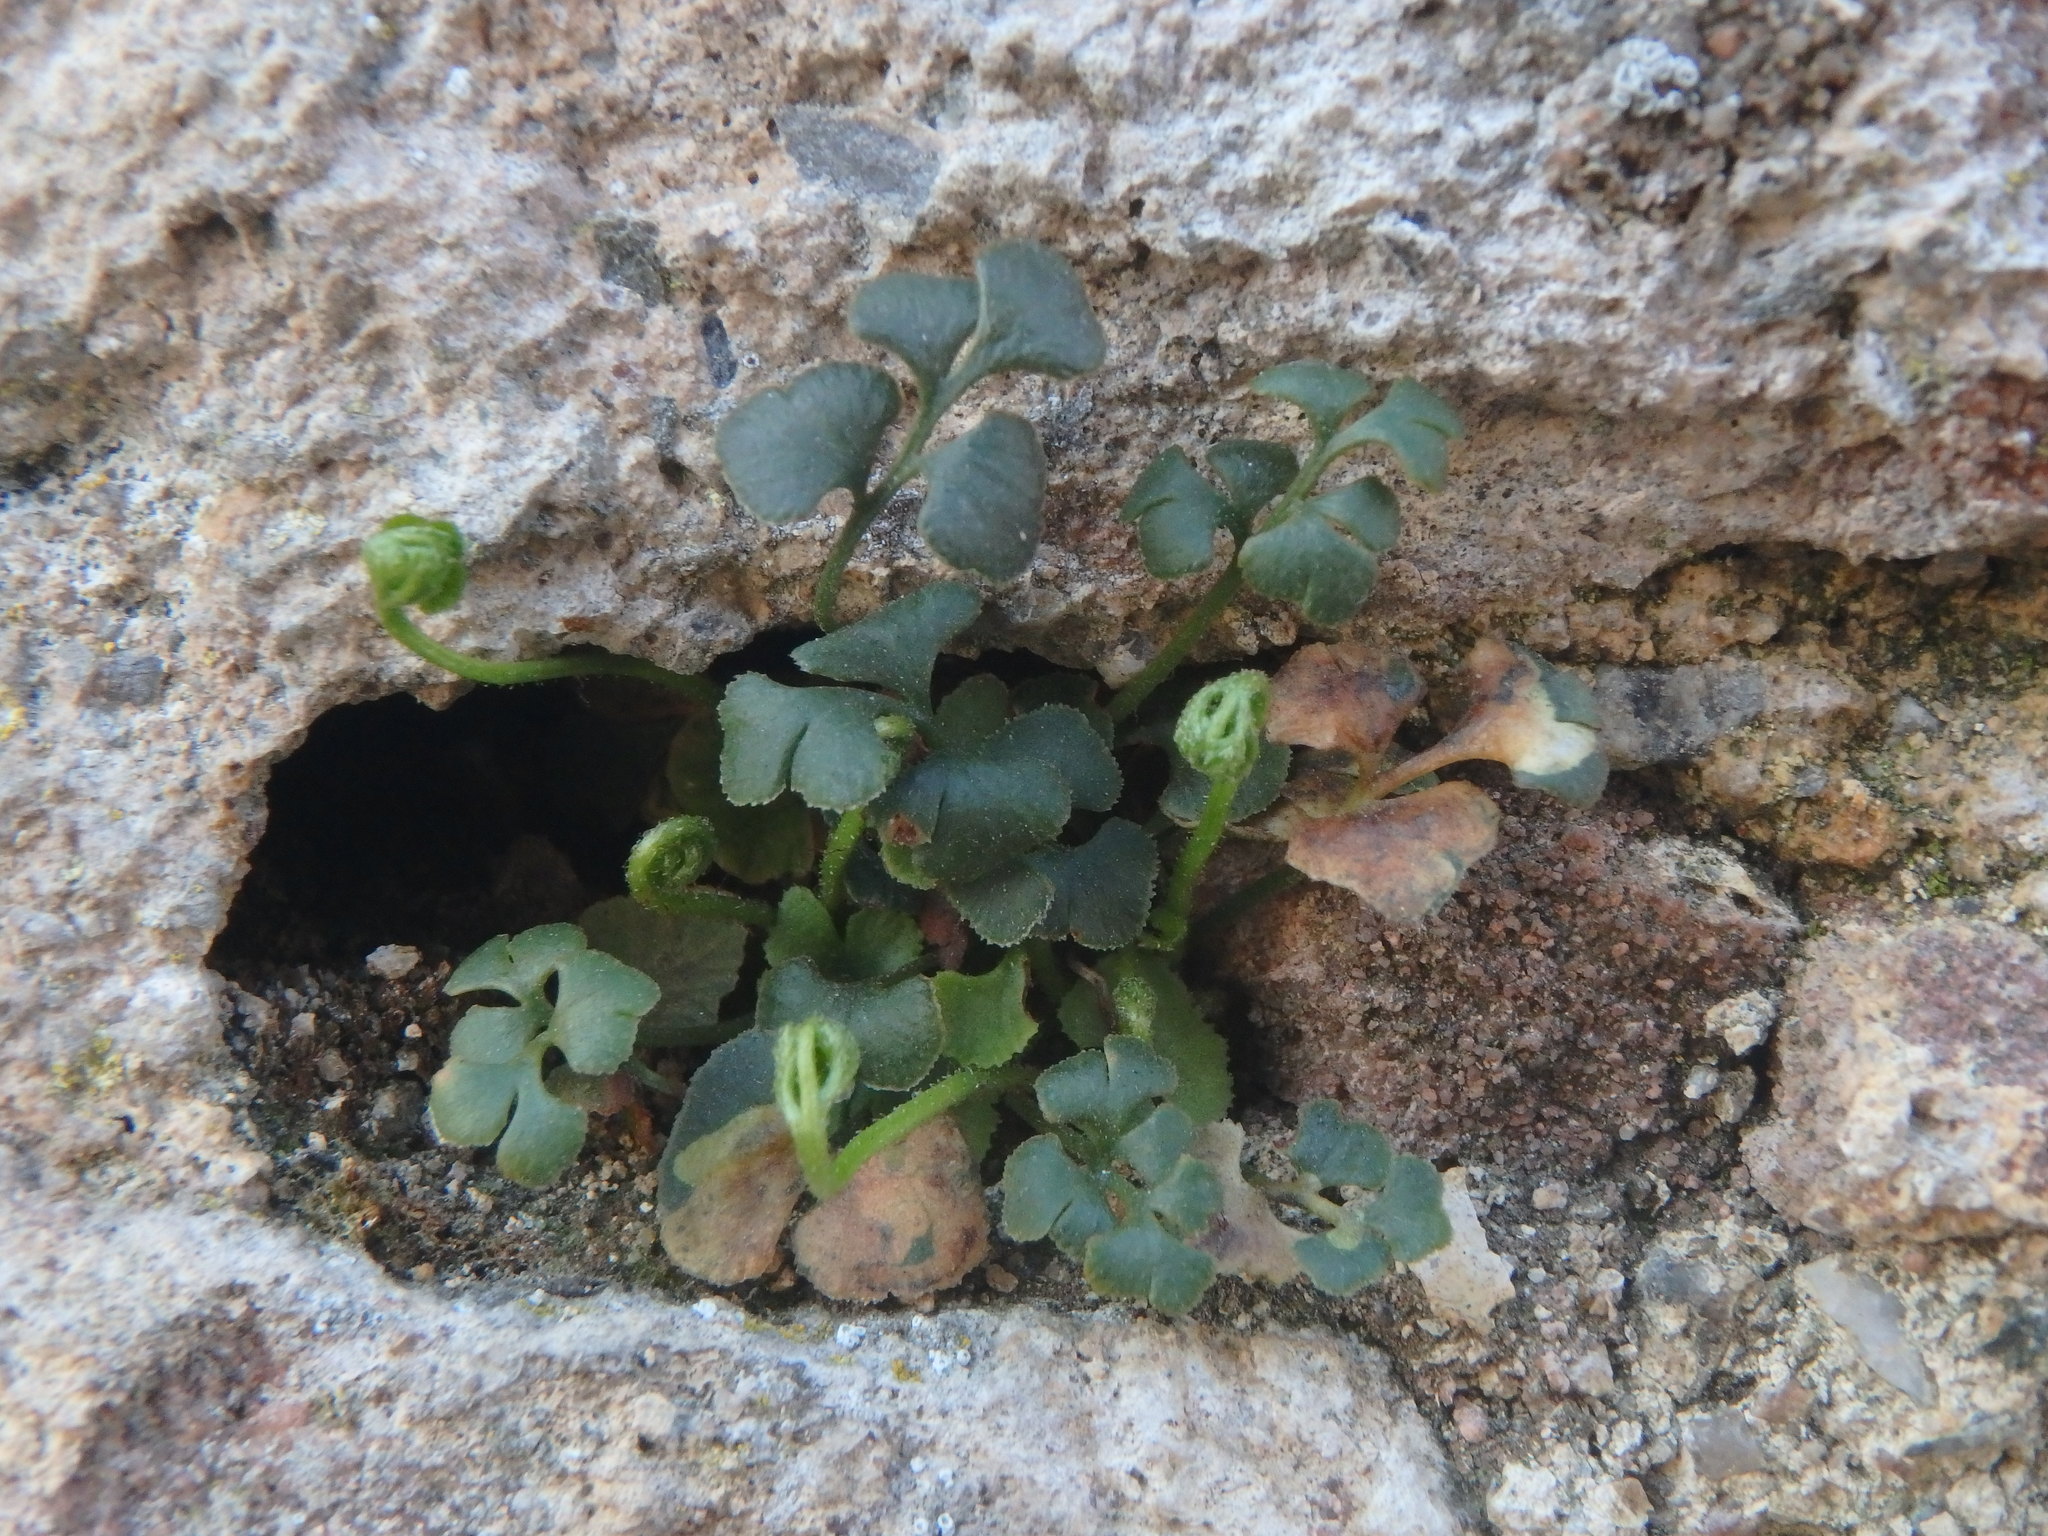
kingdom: Plantae
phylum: Tracheophyta
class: Polypodiopsida
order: Polypodiales
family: Aspleniaceae
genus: Asplenium
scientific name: Asplenium ruta-muraria
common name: Wall-rue
